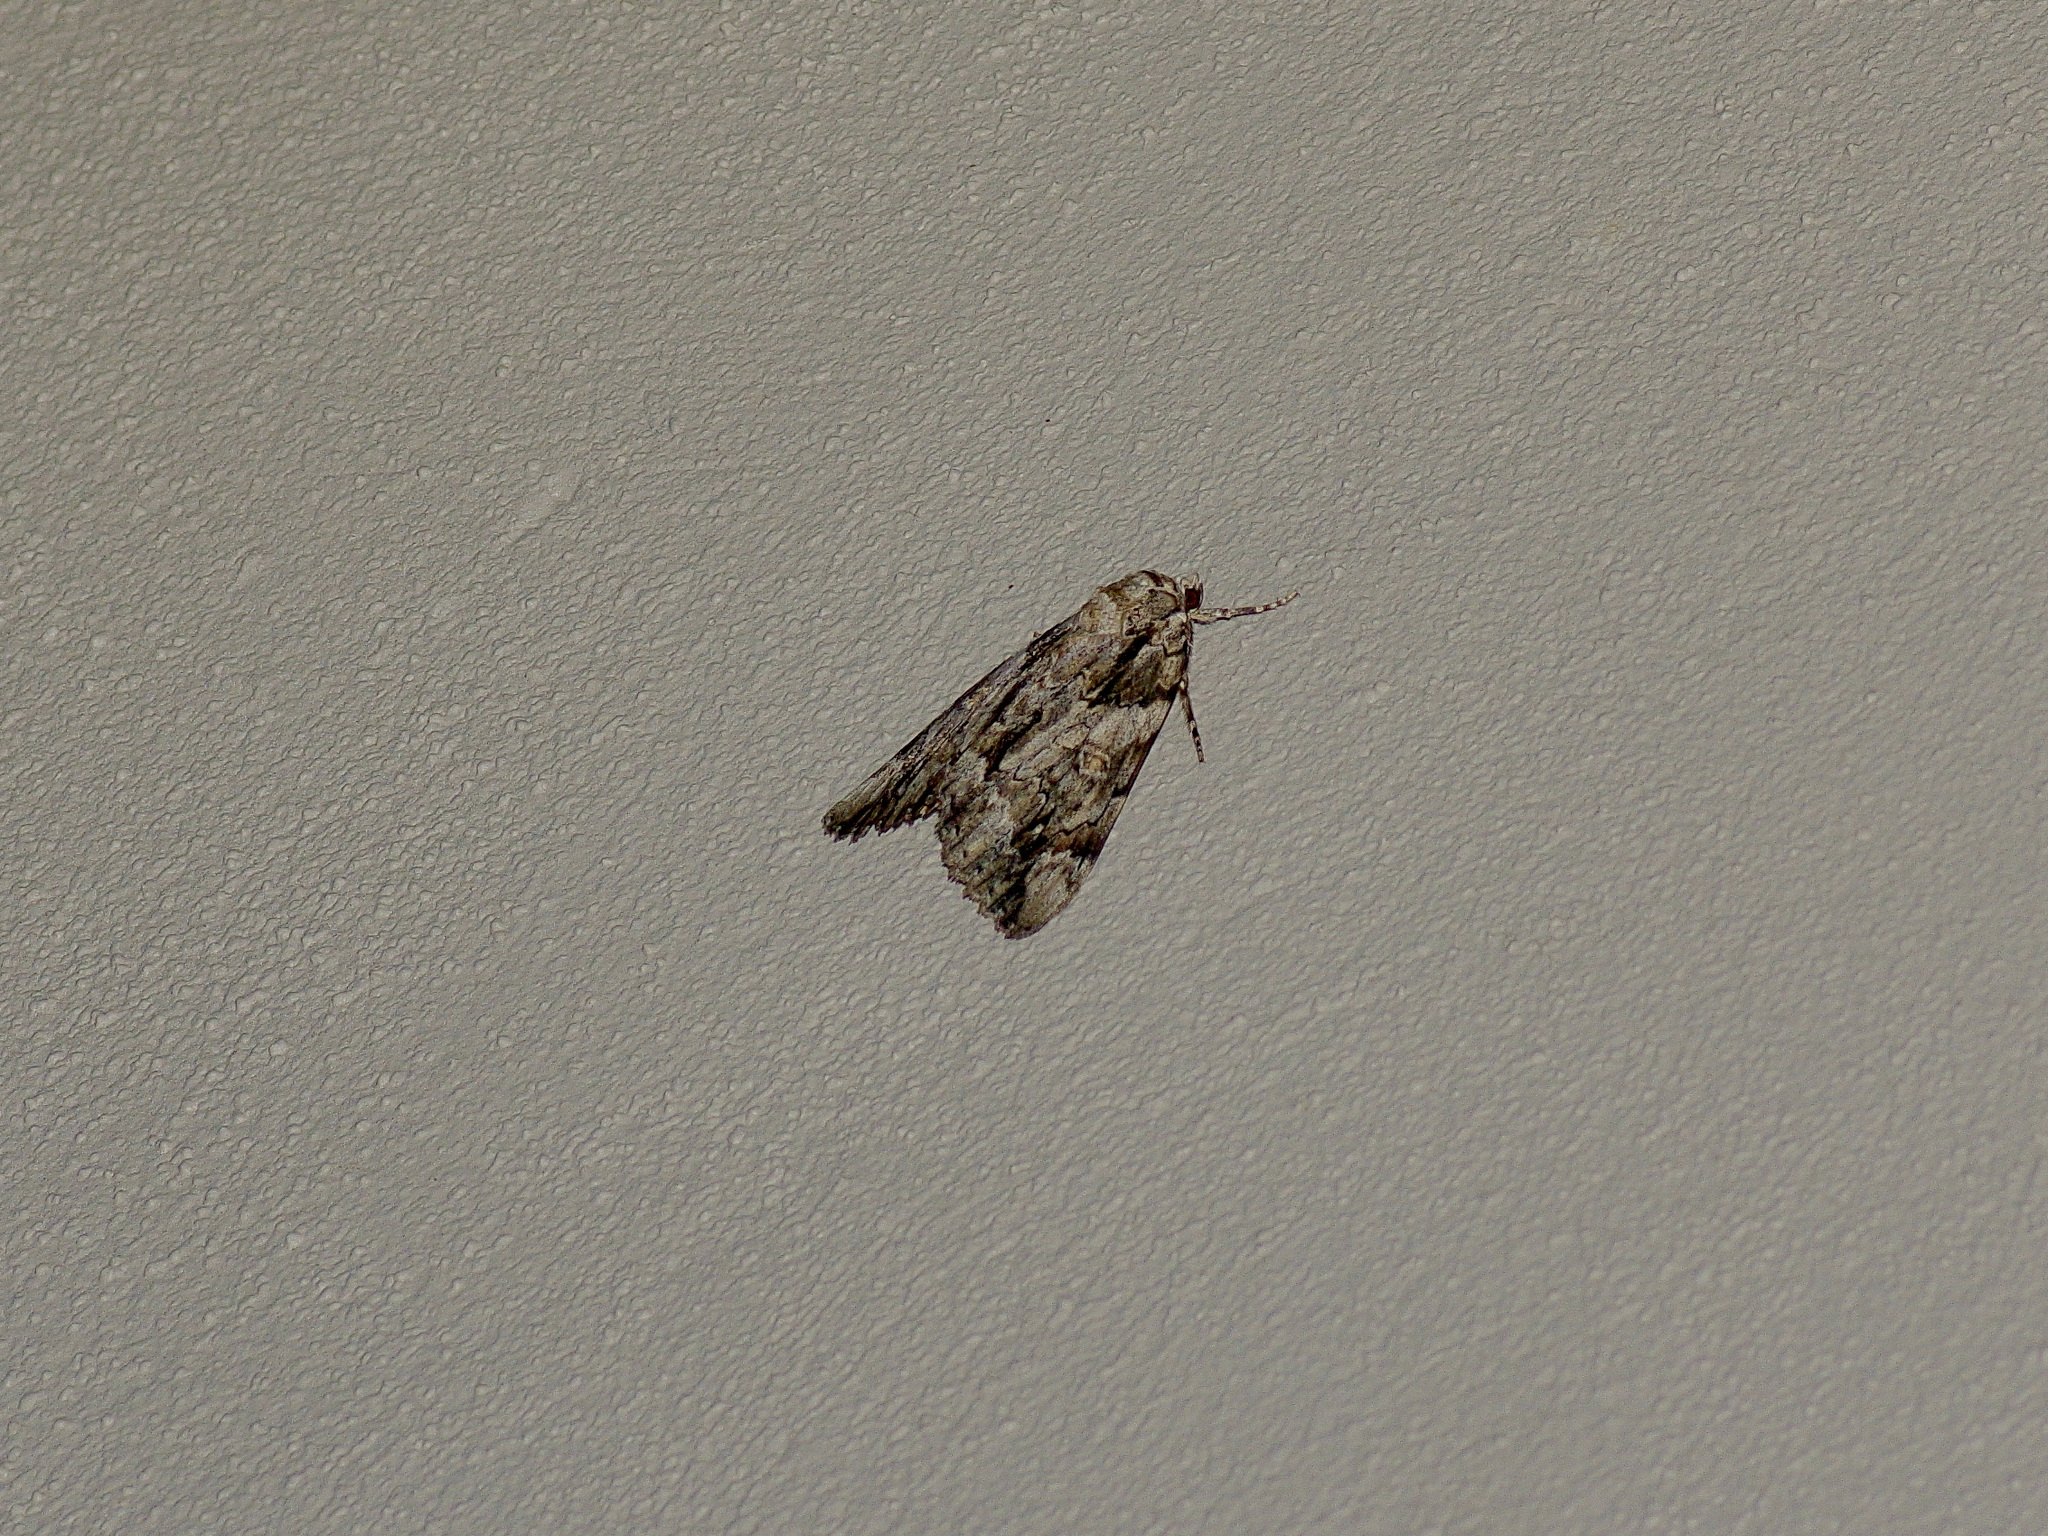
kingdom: Animalia
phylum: Arthropoda
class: Insecta
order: Lepidoptera
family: Erebidae
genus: Catocala
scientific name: Catocala neogama
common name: Bride underwing
